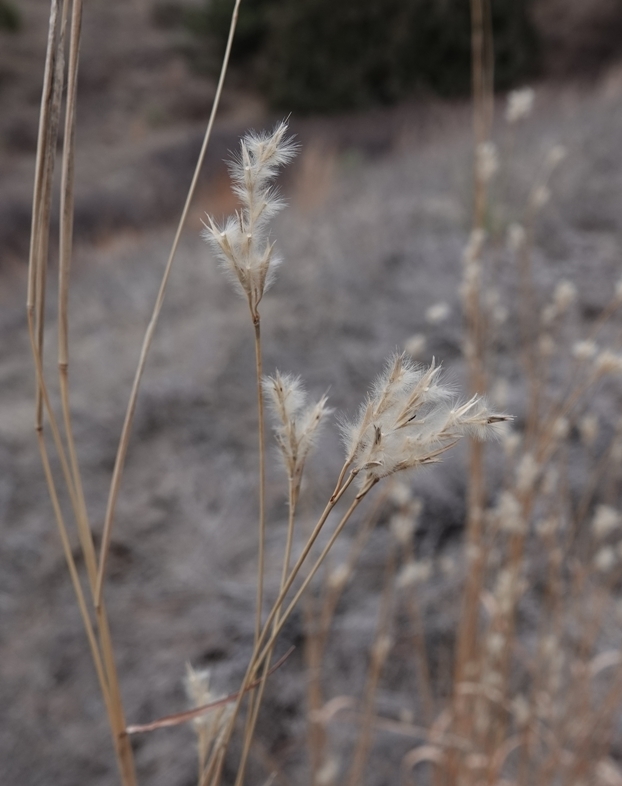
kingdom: Plantae
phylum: Tracheophyta
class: Liliopsida
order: Poales
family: Poaceae
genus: Andropogon
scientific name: Andropogon hallii
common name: Sand bluestem
